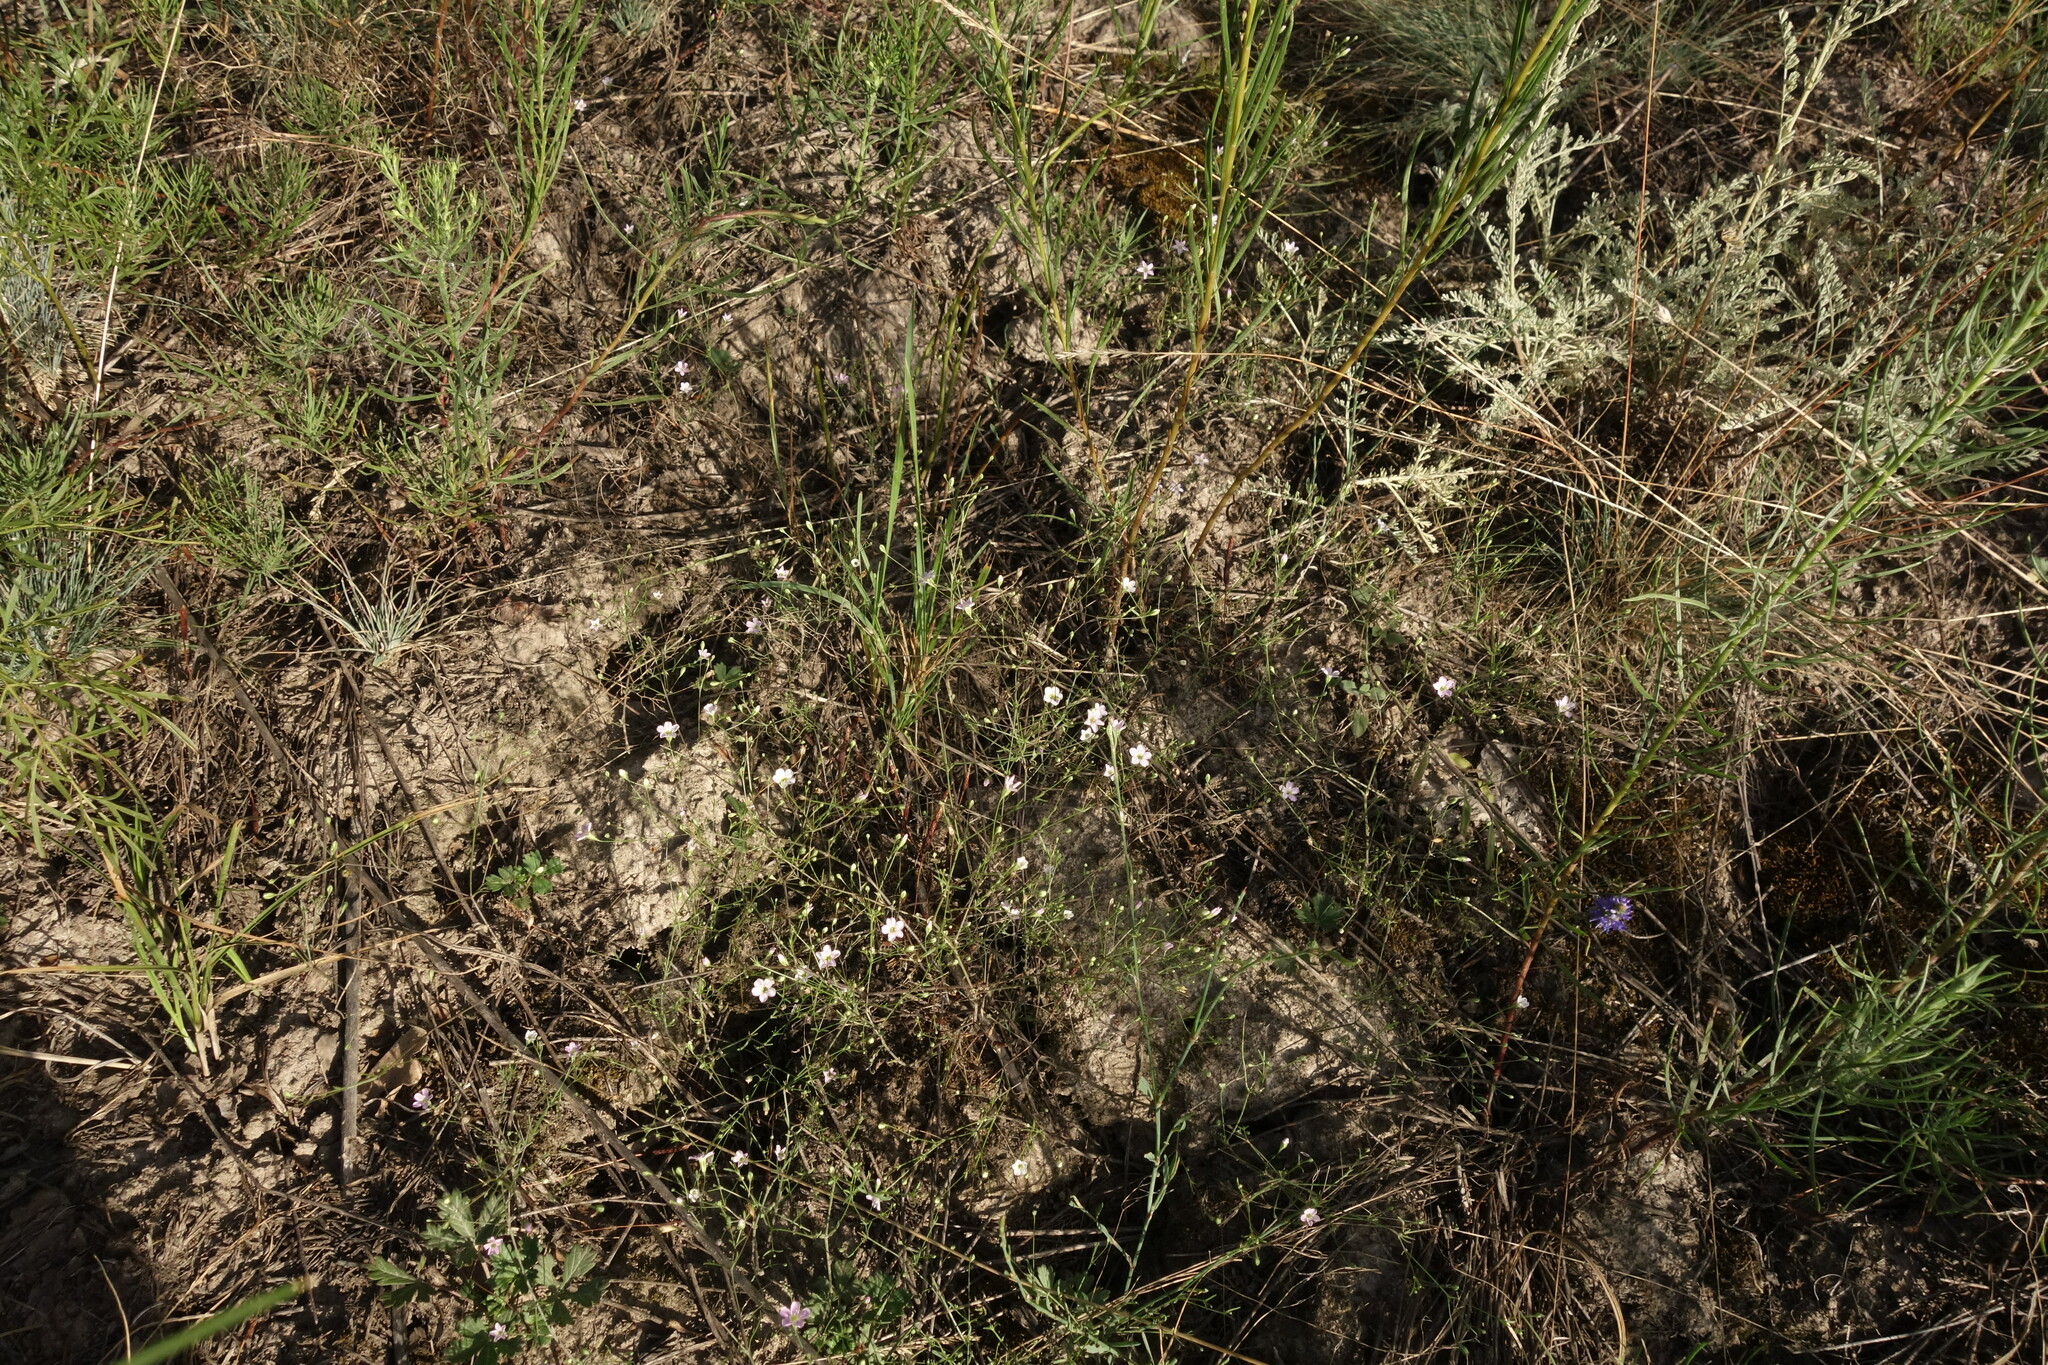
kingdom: Plantae
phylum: Tracheophyta
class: Magnoliopsida
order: Caryophyllales
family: Caryophyllaceae
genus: Psammophiliella
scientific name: Psammophiliella muralis
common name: Cushion baby's-breath
